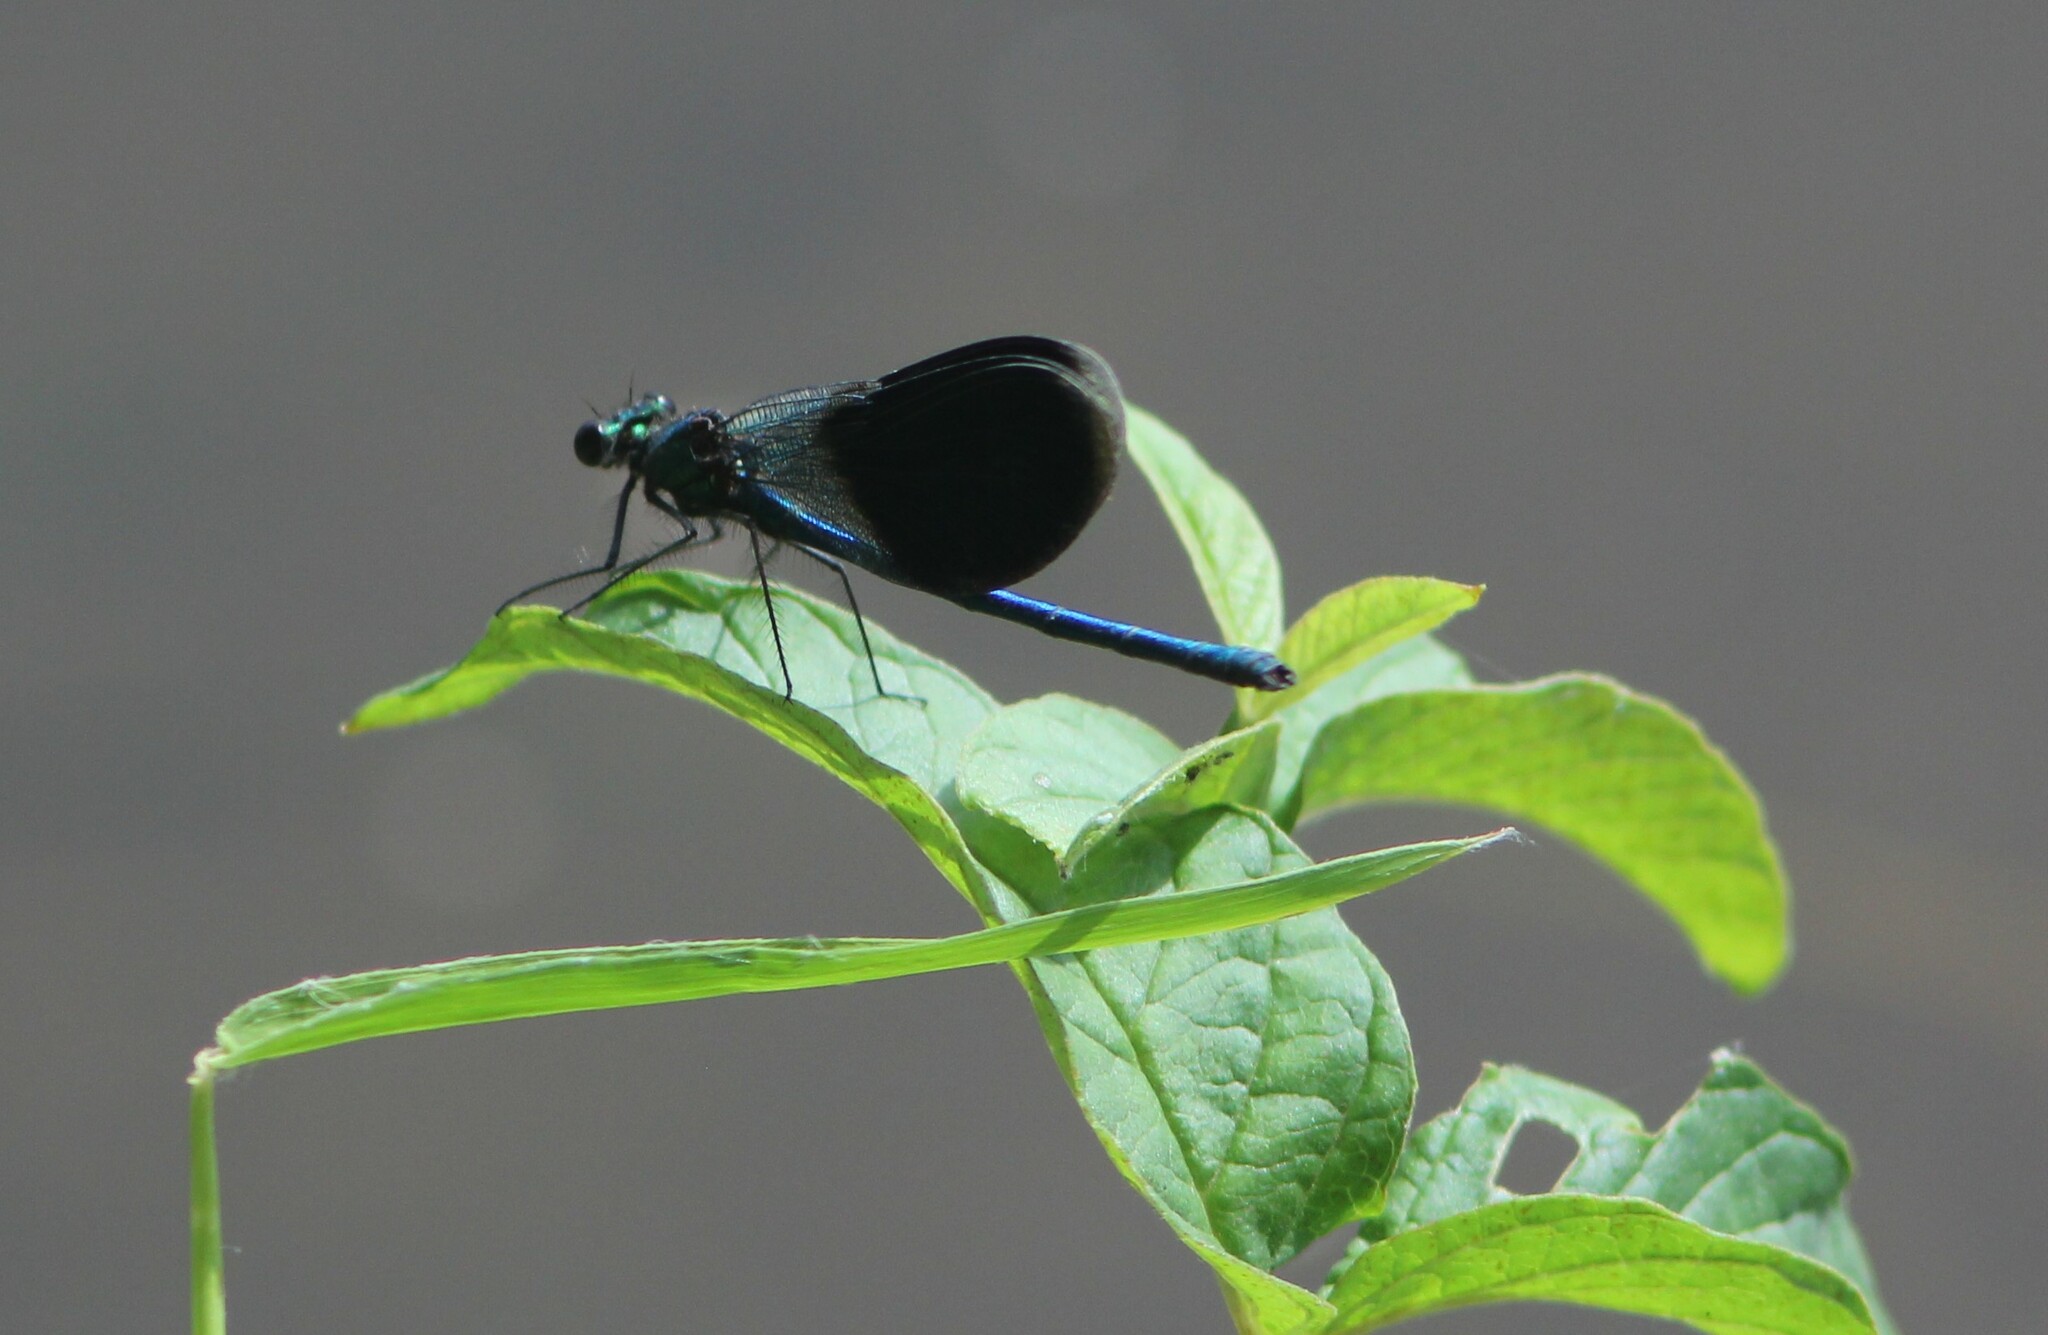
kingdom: Animalia
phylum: Arthropoda
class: Insecta
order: Odonata
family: Calopterygidae
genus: Calopteryx
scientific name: Calopteryx splendens
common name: Banded demoiselle
